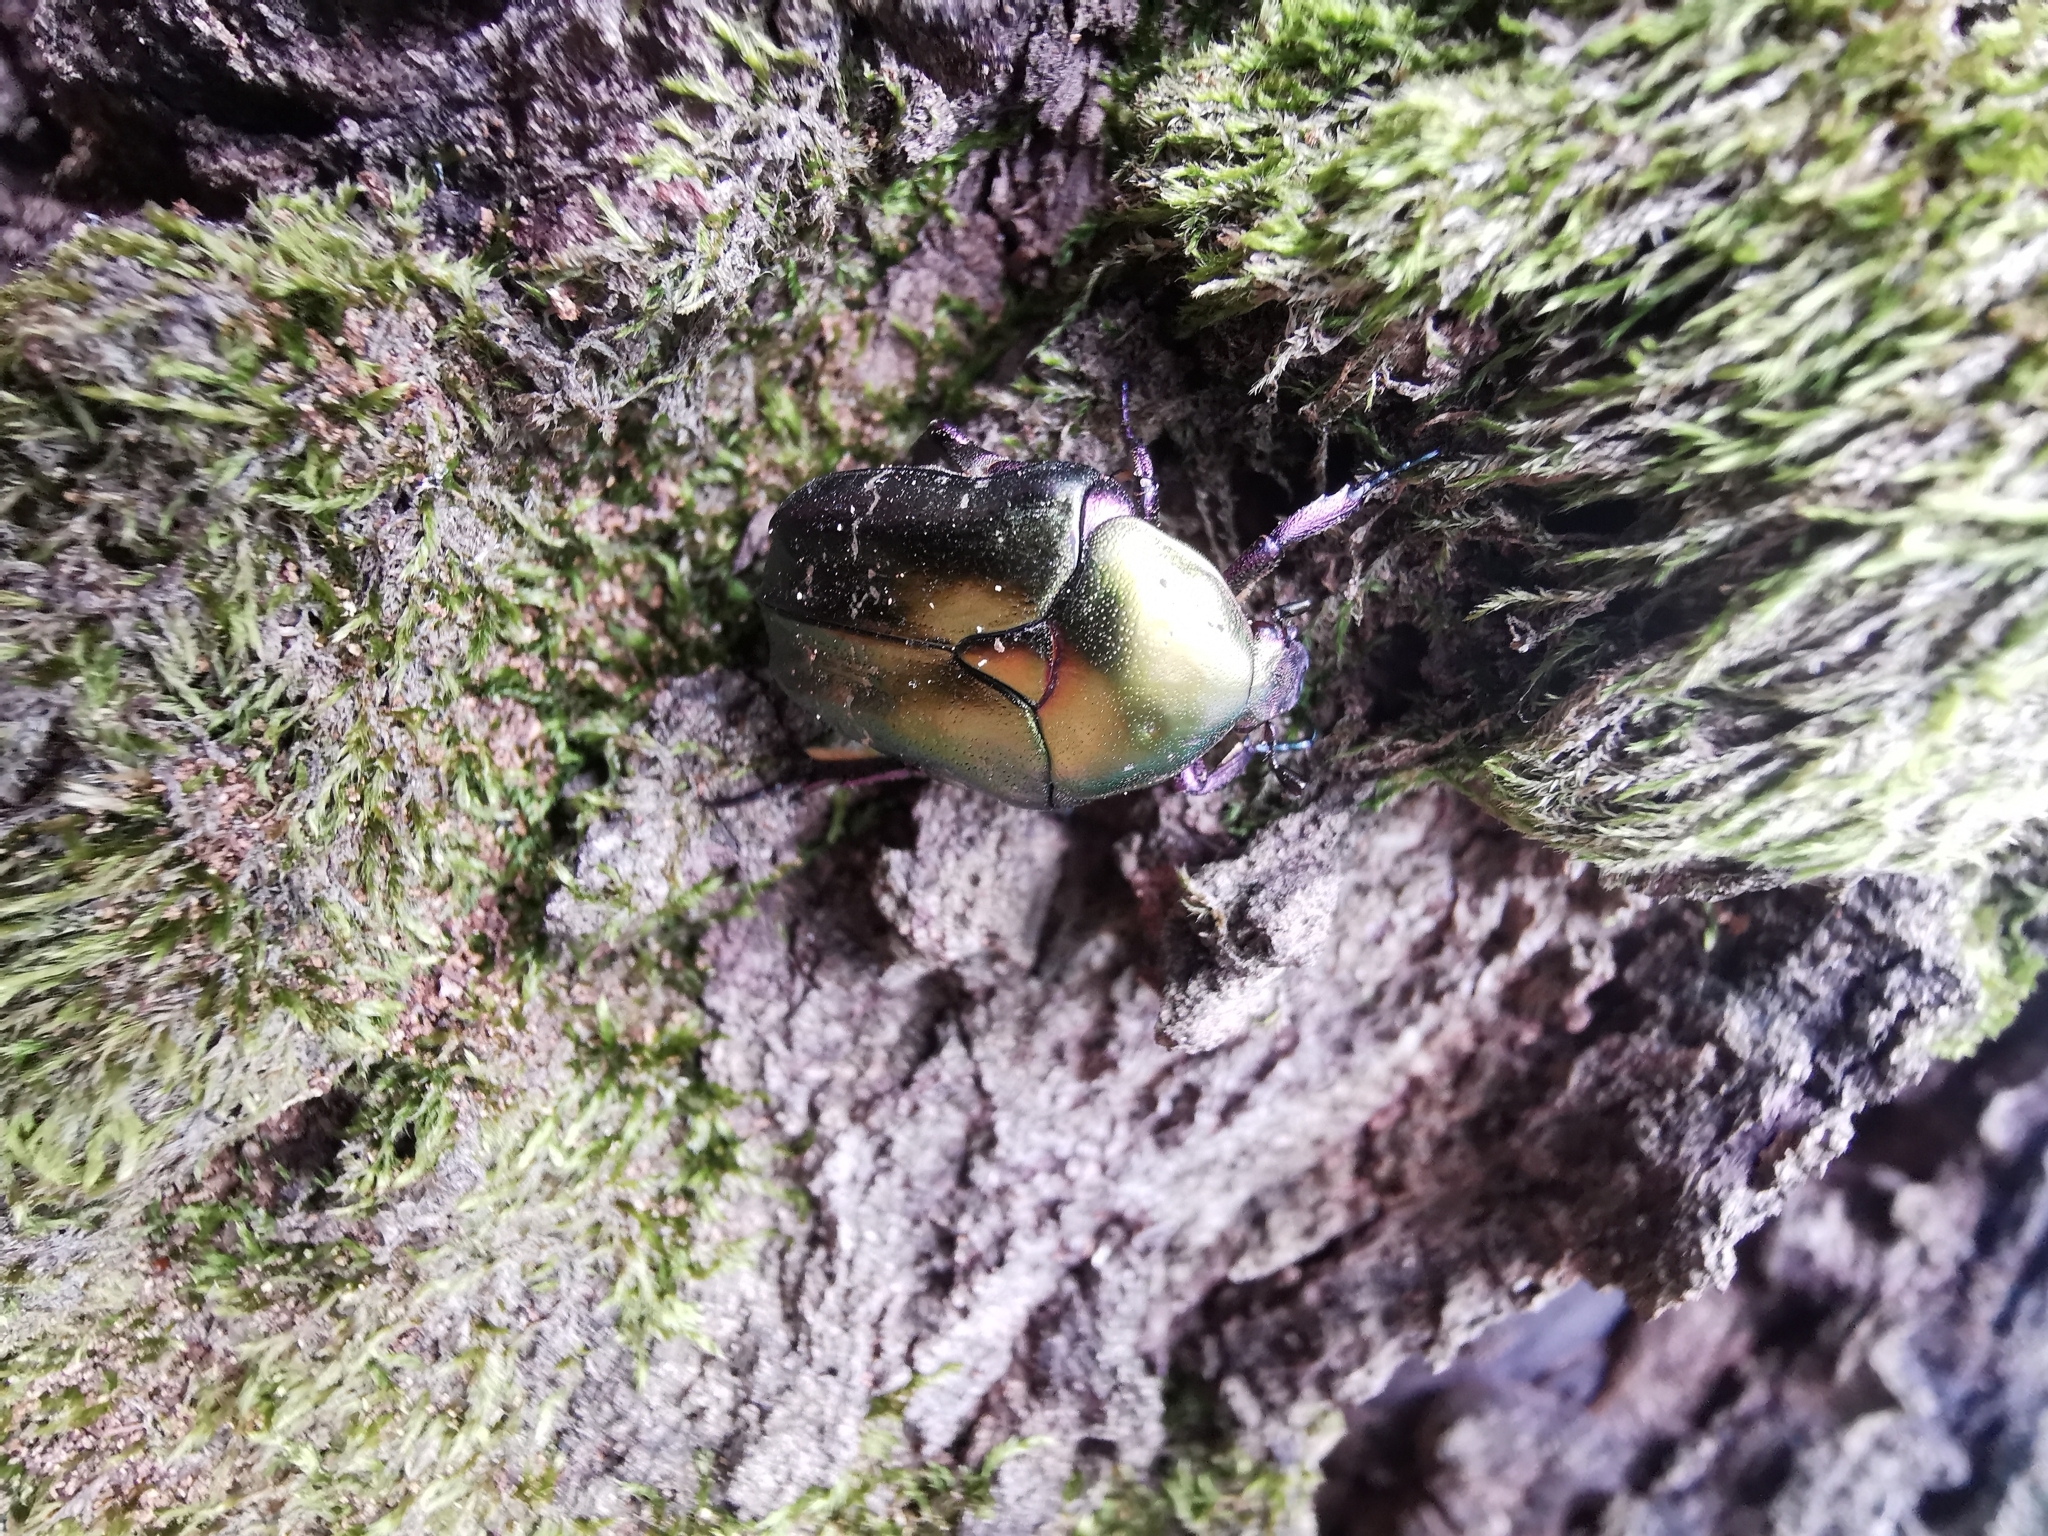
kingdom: Animalia
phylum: Arthropoda
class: Insecta
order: Coleoptera
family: Scarabaeidae
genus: Protaetia
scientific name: Protaetia cuprea
